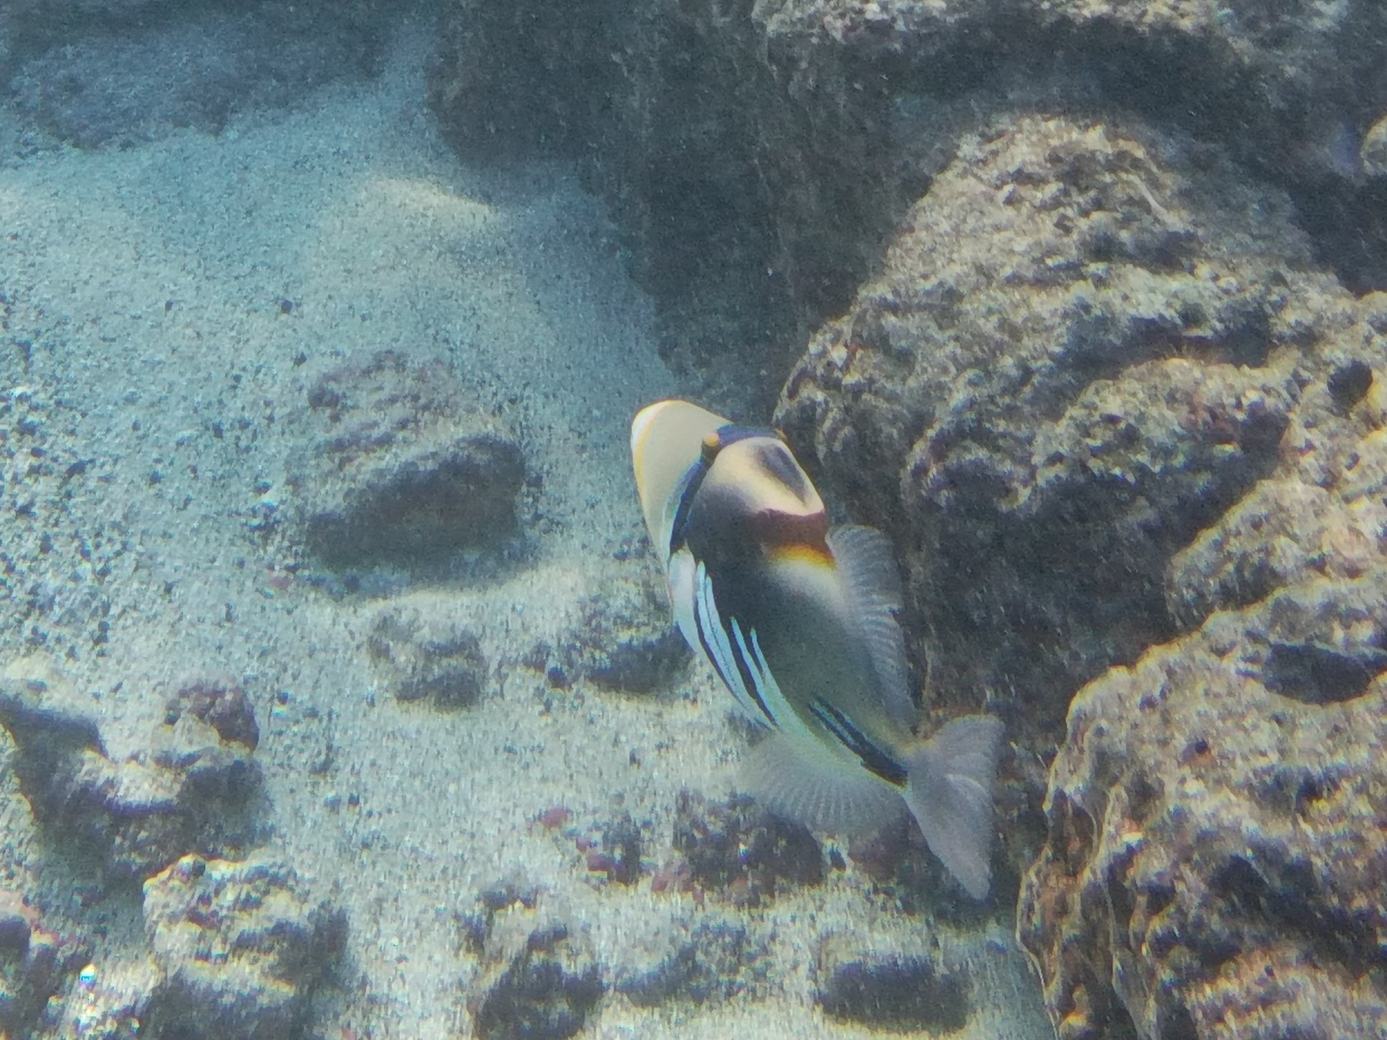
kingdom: Animalia
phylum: Chordata
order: Tetraodontiformes
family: Balistidae
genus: Rhinecanthus
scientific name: Rhinecanthus aculeatus
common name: White-banded triggerfish
